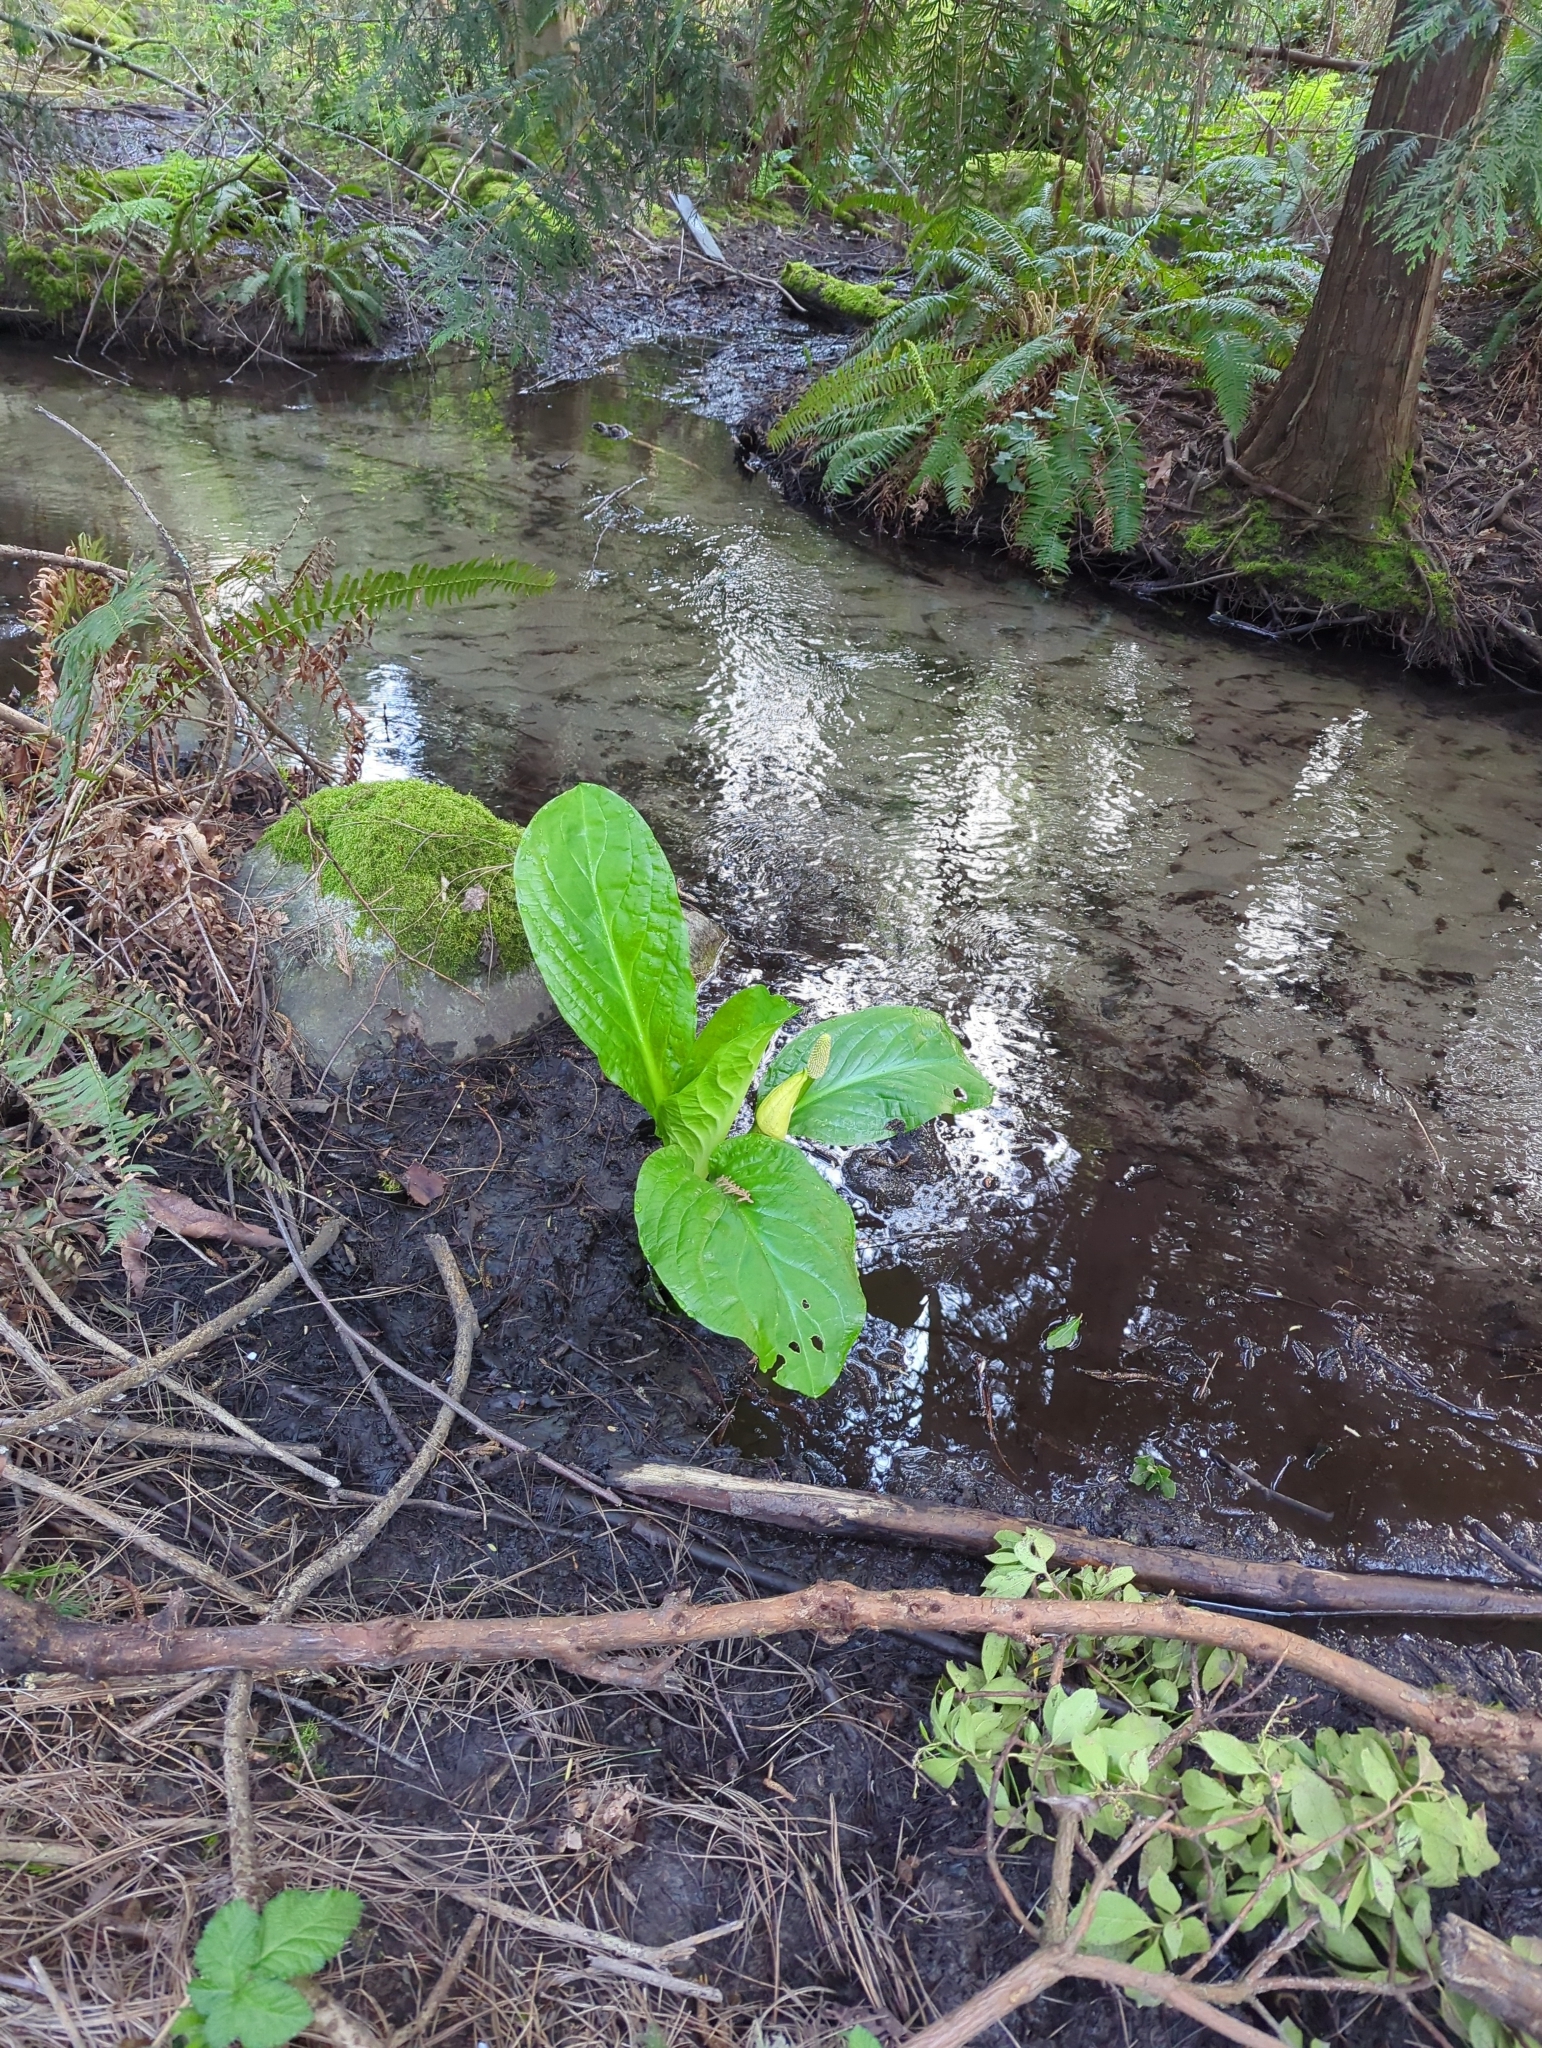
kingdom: Plantae
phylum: Tracheophyta
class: Liliopsida
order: Alismatales
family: Araceae
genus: Lysichiton
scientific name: Lysichiton americanus
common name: American skunk cabbage
